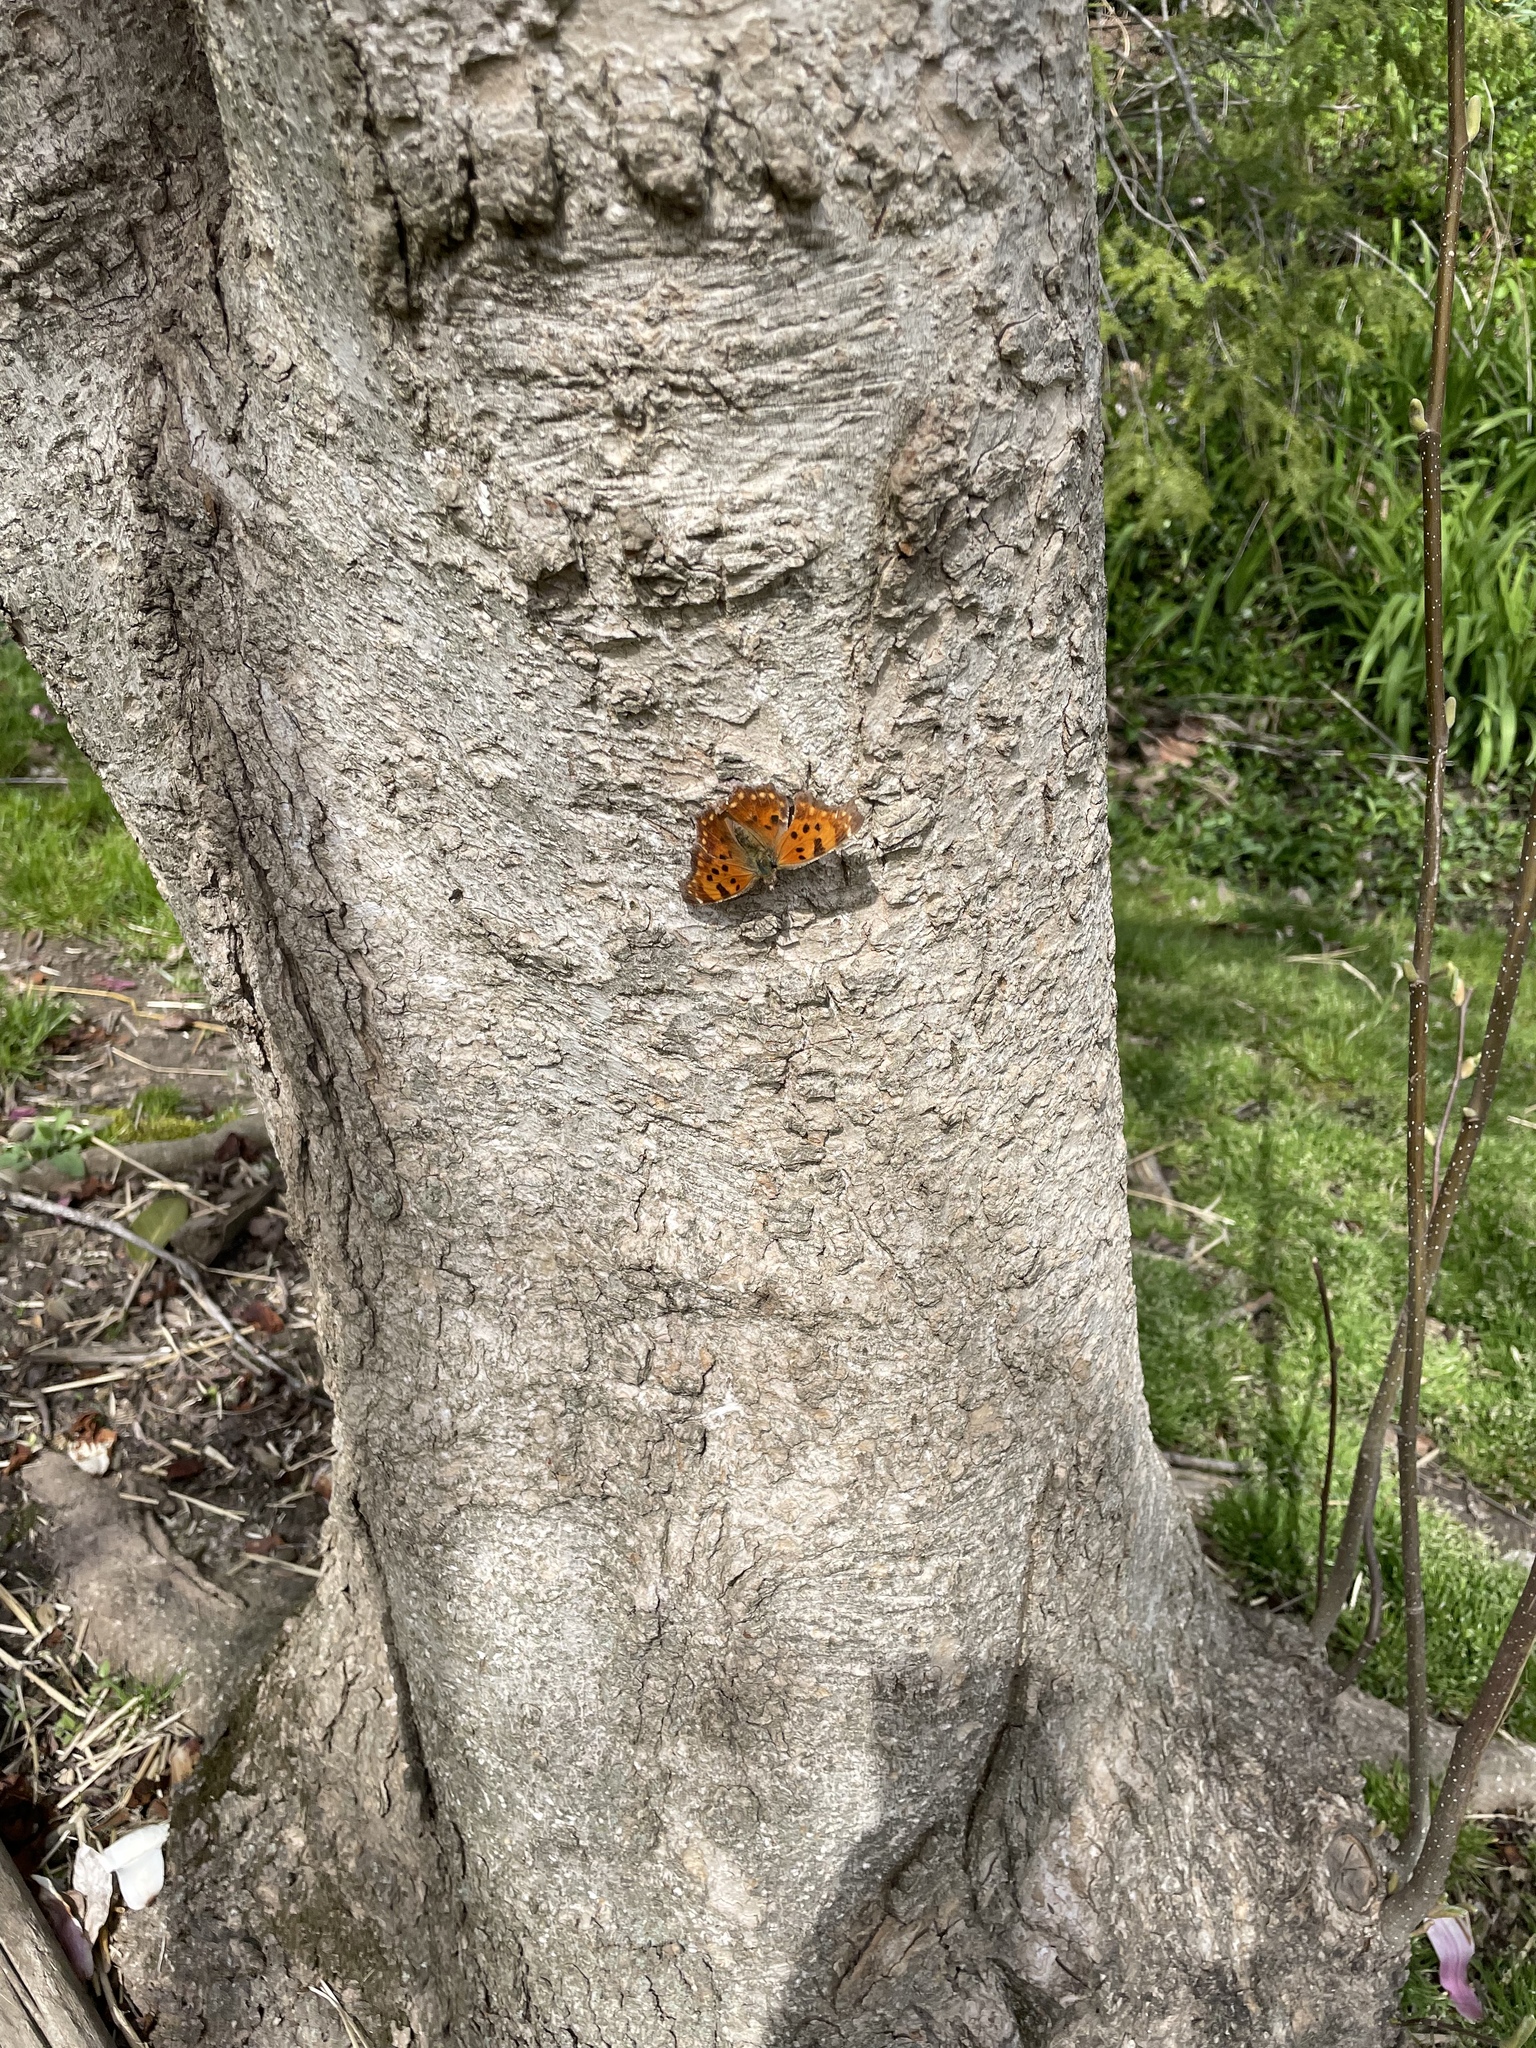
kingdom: Animalia
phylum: Arthropoda
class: Insecta
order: Lepidoptera
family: Nymphalidae
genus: Polygonia
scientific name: Polygonia comma
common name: Eastern comma
